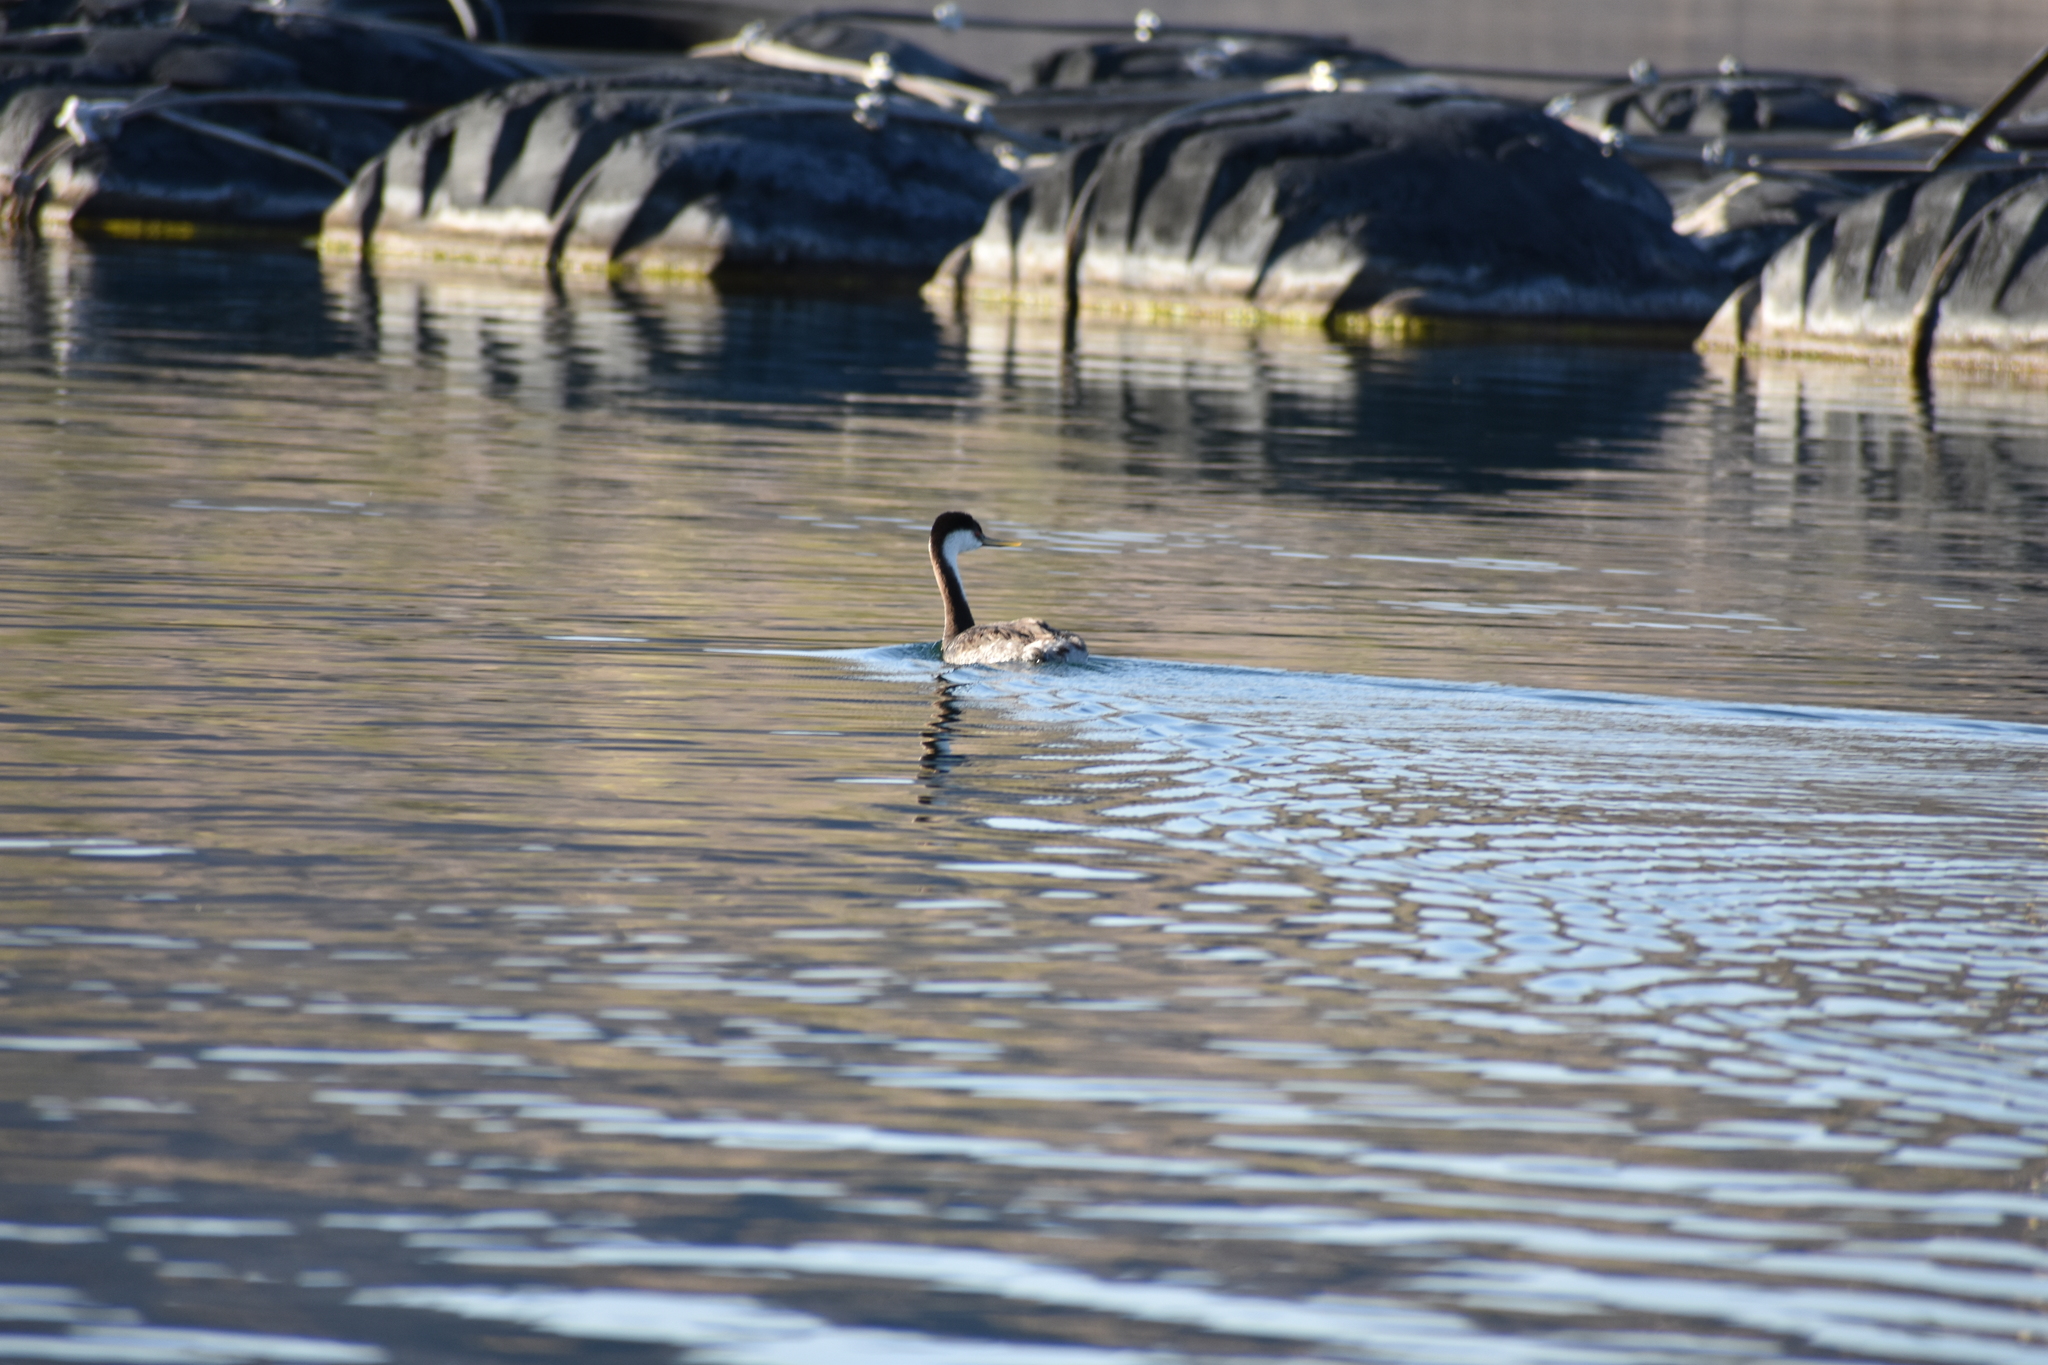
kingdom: Animalia
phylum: Chordata
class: Aves
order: Podicipediformes
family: Podicipedidae
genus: Aechmophorus
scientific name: Aechmophorus occidentalis
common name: Western grebe
